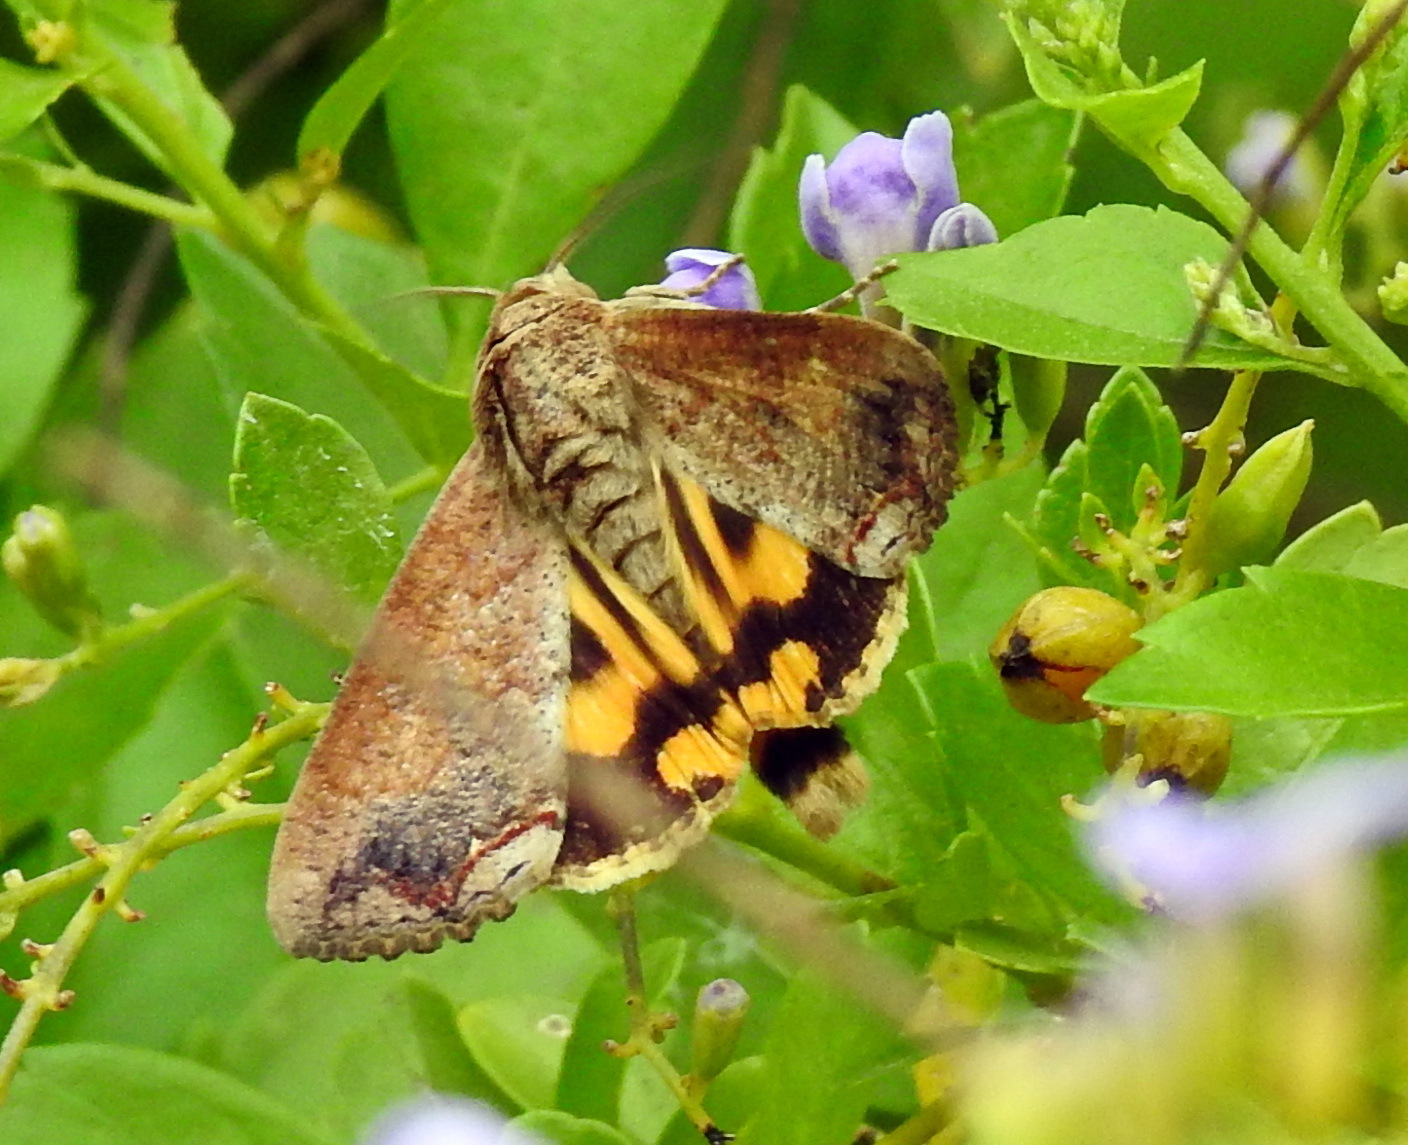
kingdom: Animalia
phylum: Arthropoda
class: Insecta
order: Lepidoptera
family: Erebidae
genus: Hypocala
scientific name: Hypocala andremona
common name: Hypocala moth
